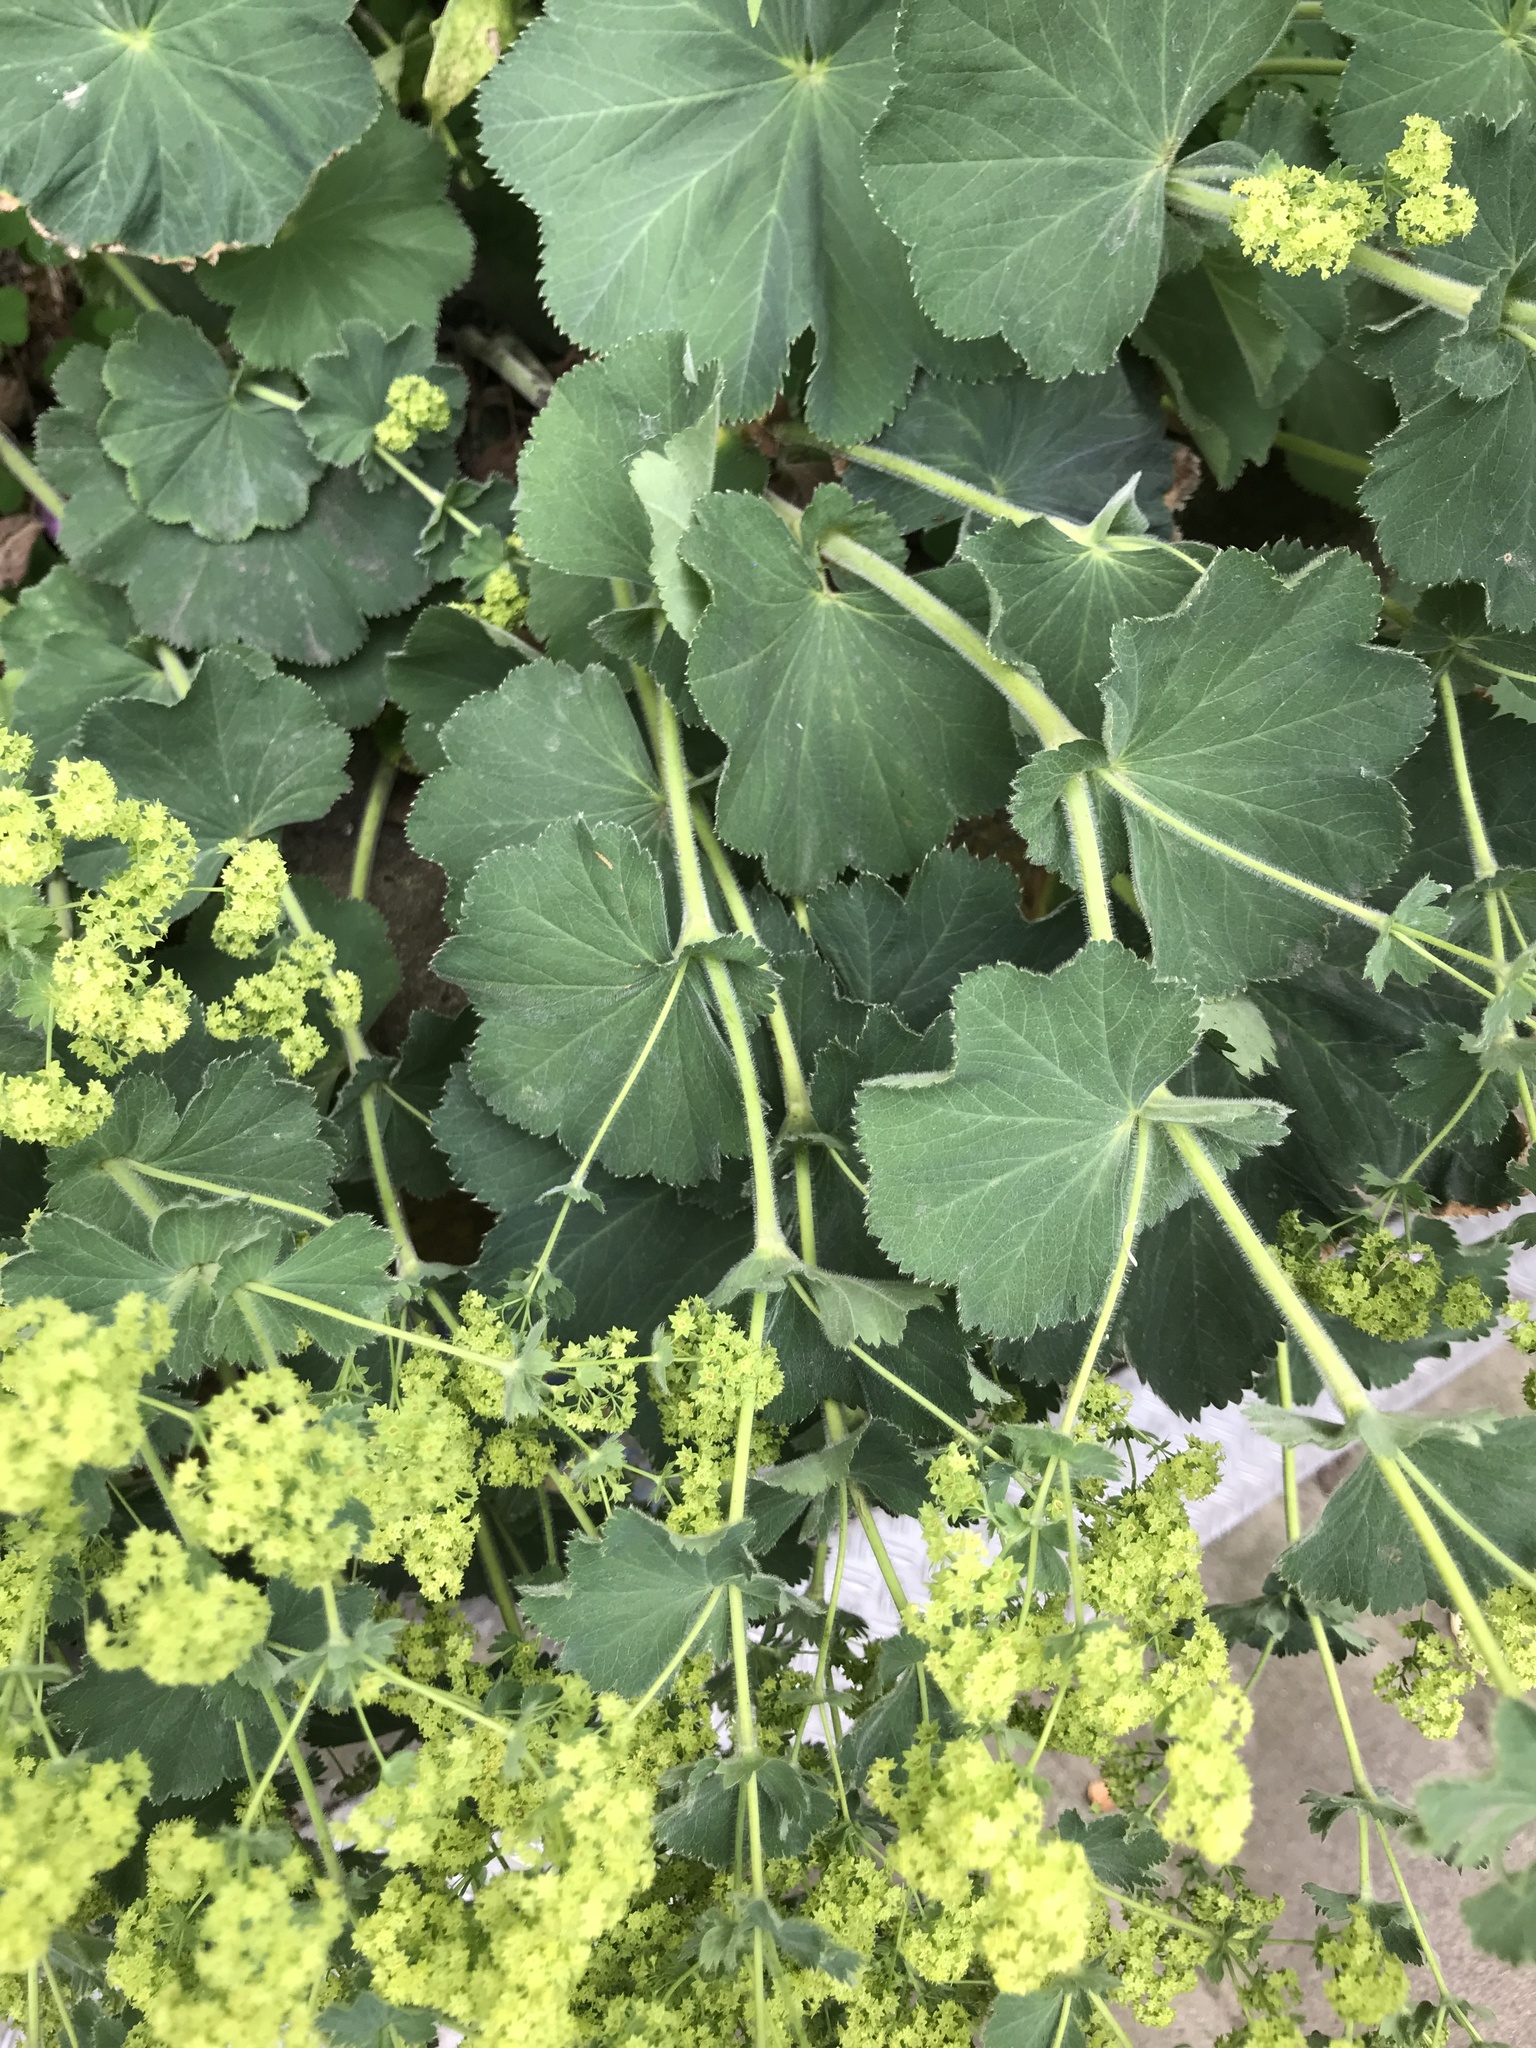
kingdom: Plantae
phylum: Tracheophyta
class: Magnoliopsida
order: Rosales
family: Rosaceae
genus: Alchemilla
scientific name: Alchemilla mollis
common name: Lady's-mantle
